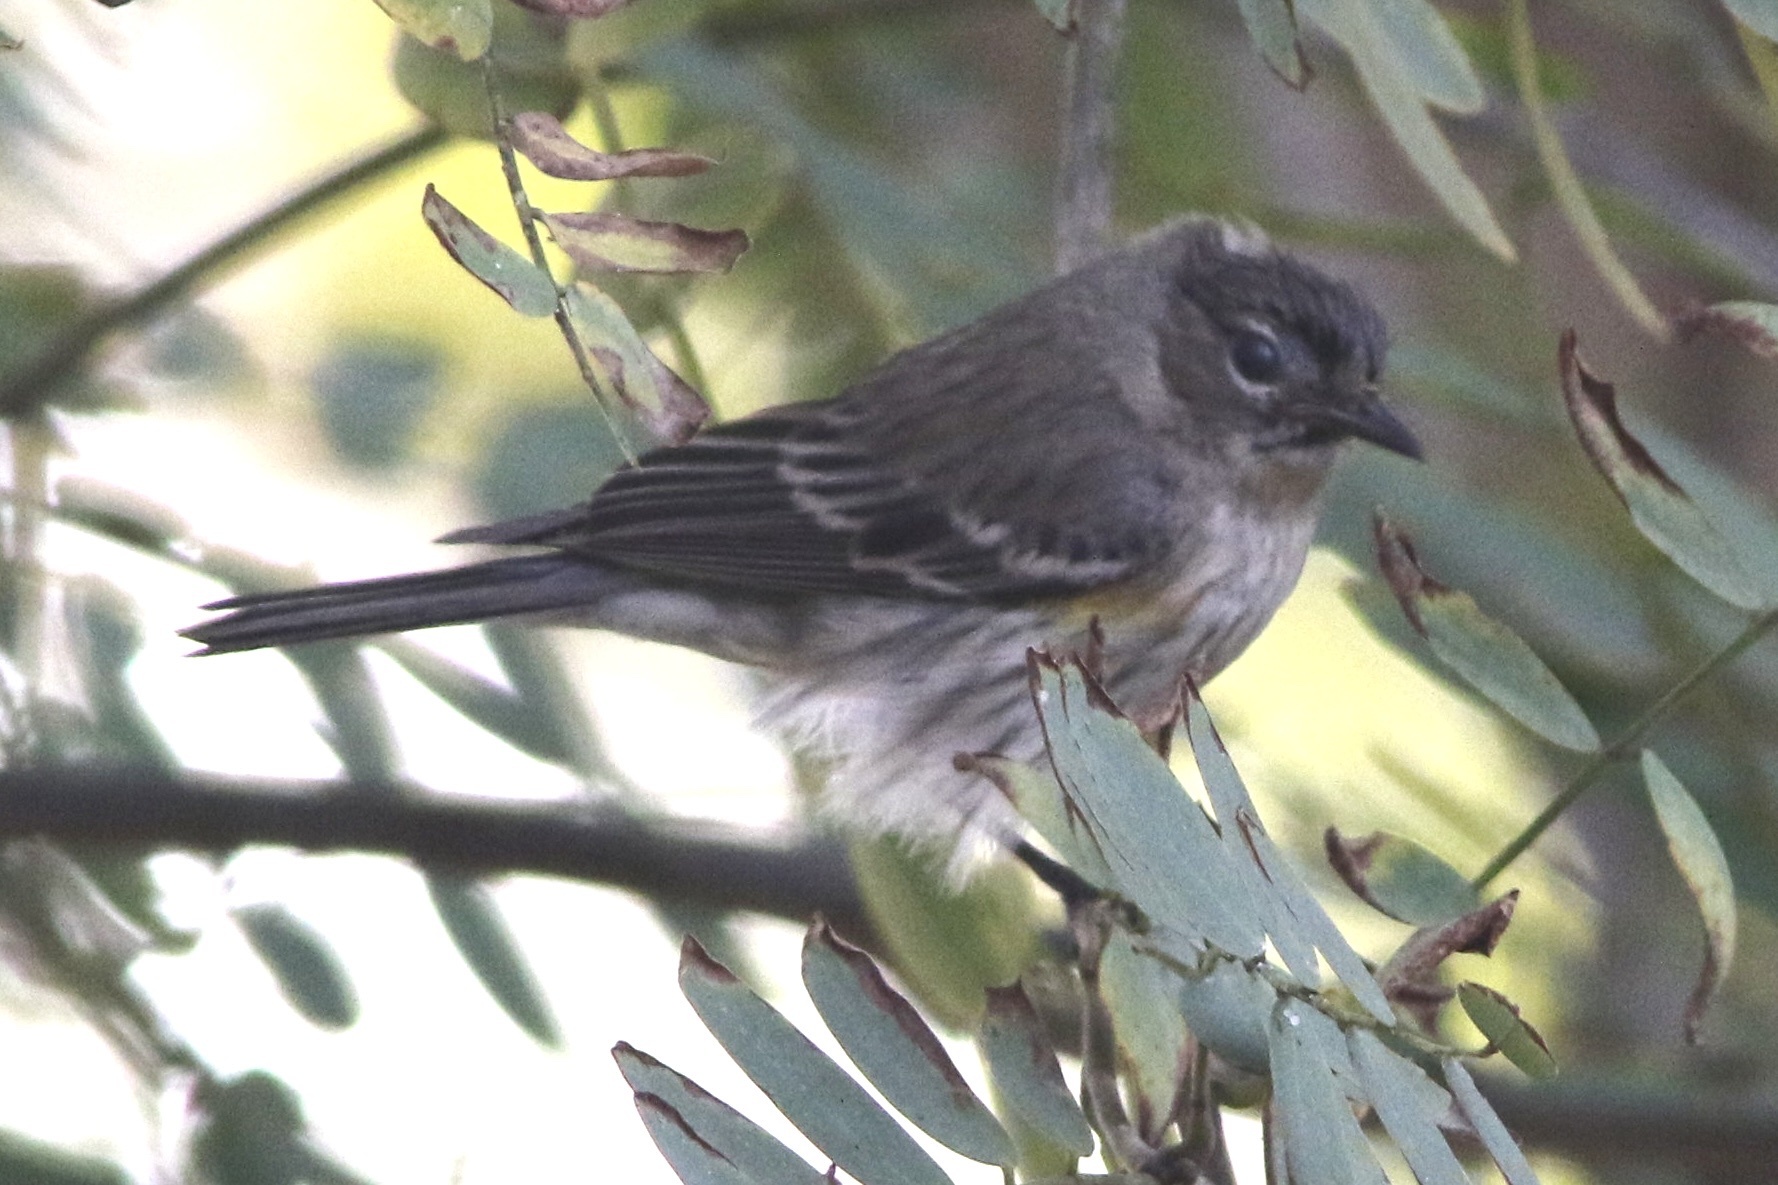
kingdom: Animalia
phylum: Chordata
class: Aves
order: Passeriformes
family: Parulidae
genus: Setophaga
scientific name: Setophaga coronata
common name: Myrtle warbler
